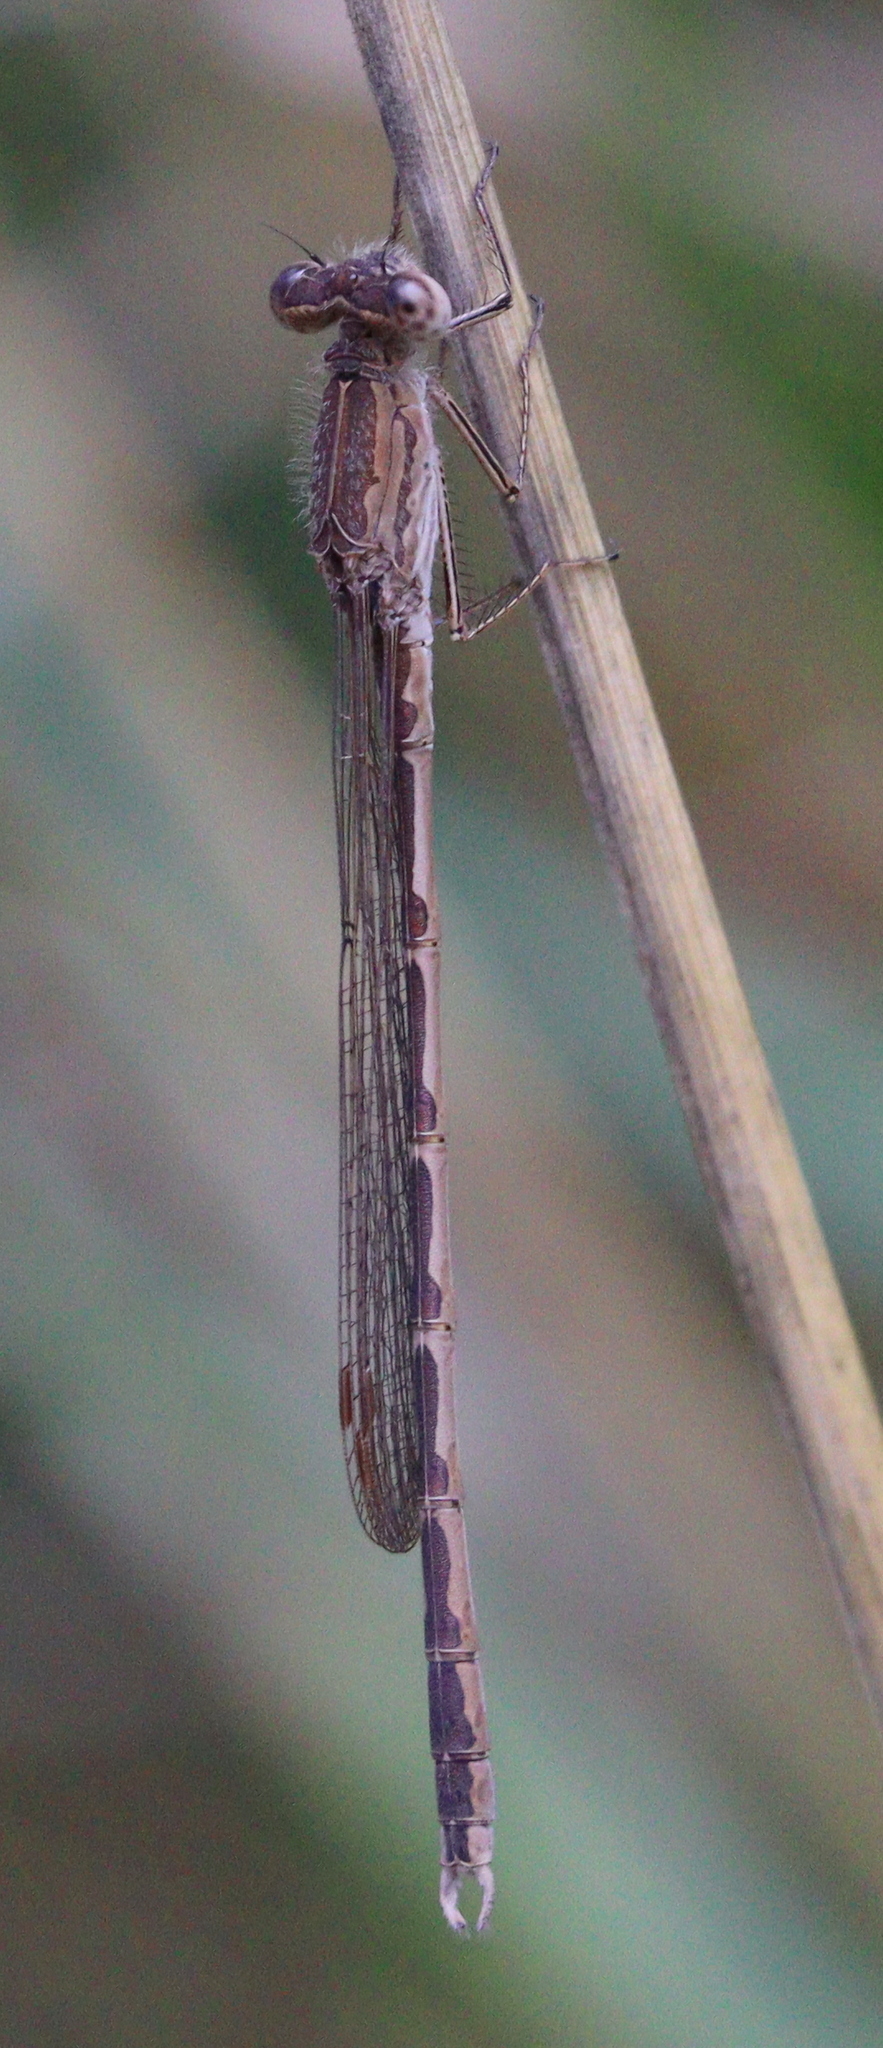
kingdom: Animalia
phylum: Arthropoda
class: Insecta
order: Odonata
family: Lestidae
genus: Sympecma
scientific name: Sympecma paedisca
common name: Siberian winter damsel
